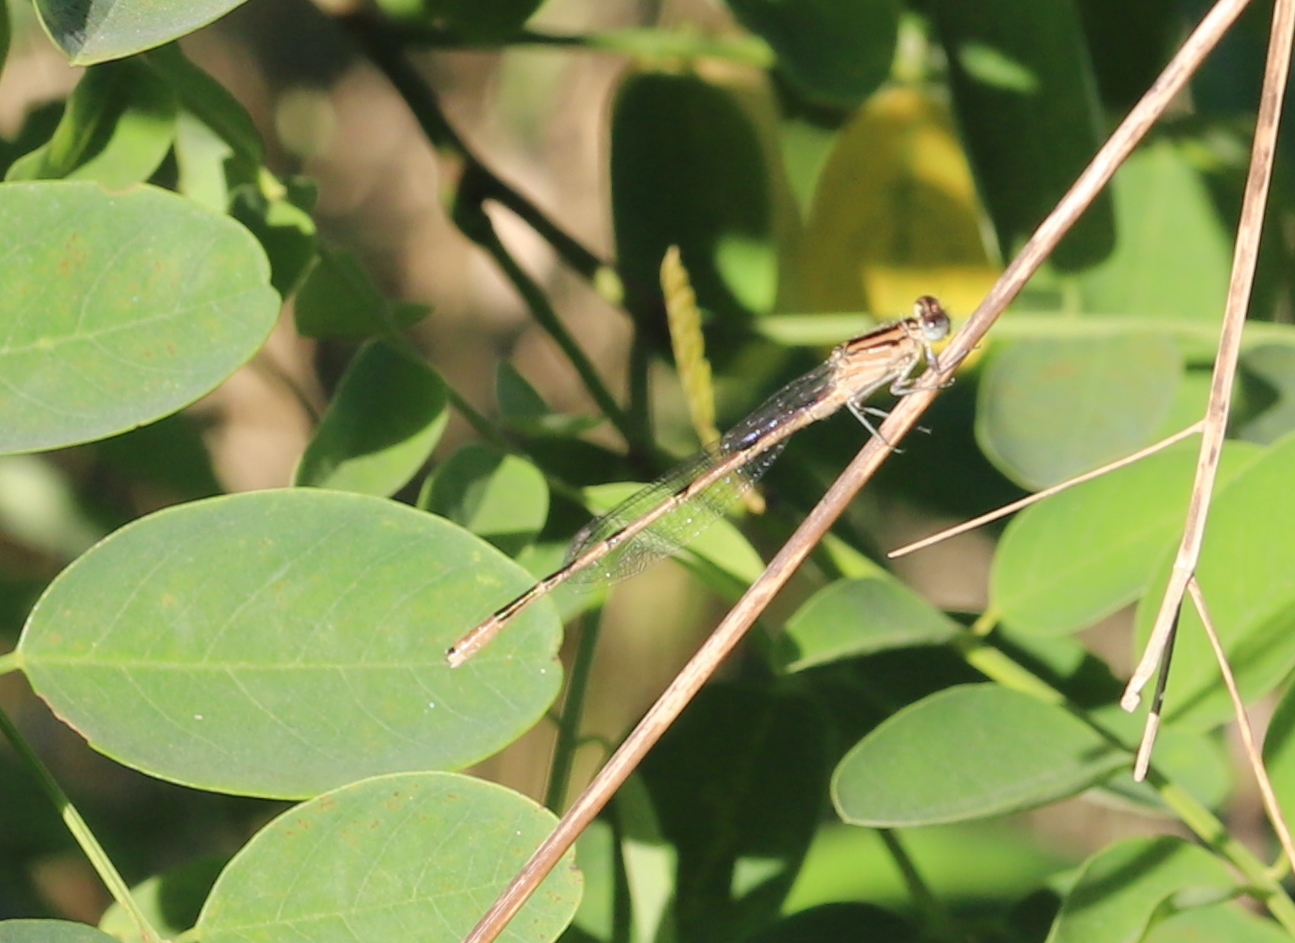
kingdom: Animalia
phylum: Arthropoda
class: Insecta
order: Odonata
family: Coenagrionidae
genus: Enallagma
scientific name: Enallagma civile
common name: Damselfly
